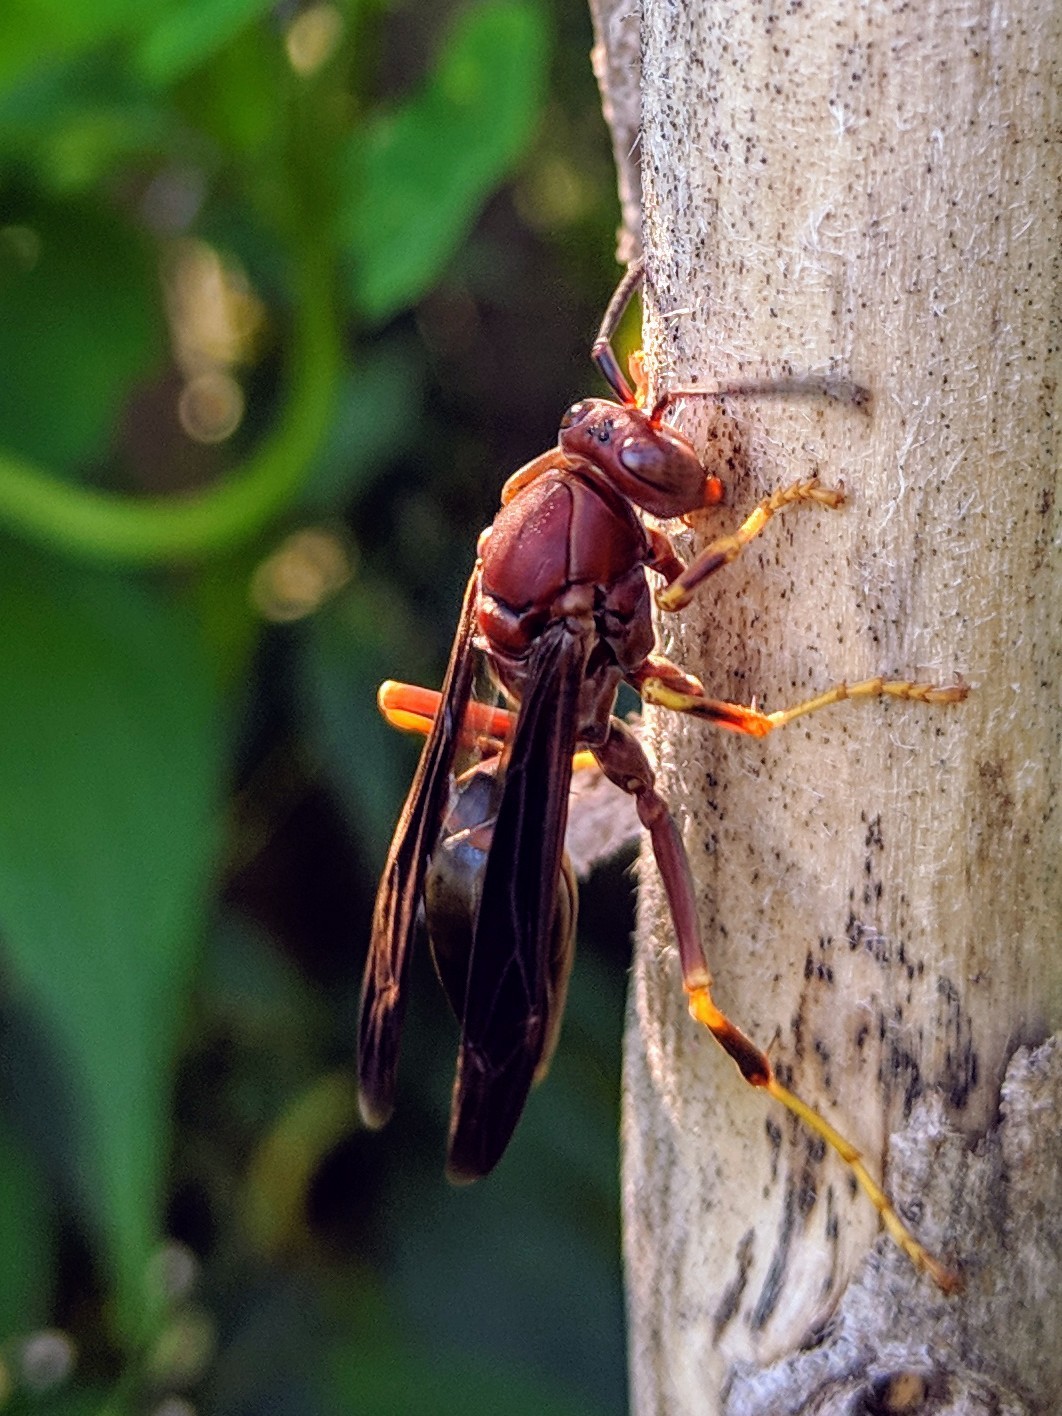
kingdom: Animalia
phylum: Arthropoda
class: Insecta
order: Hymenoptera
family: Eumenidae
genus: Polistes
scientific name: Polistes metricus
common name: Metric paper wasp
